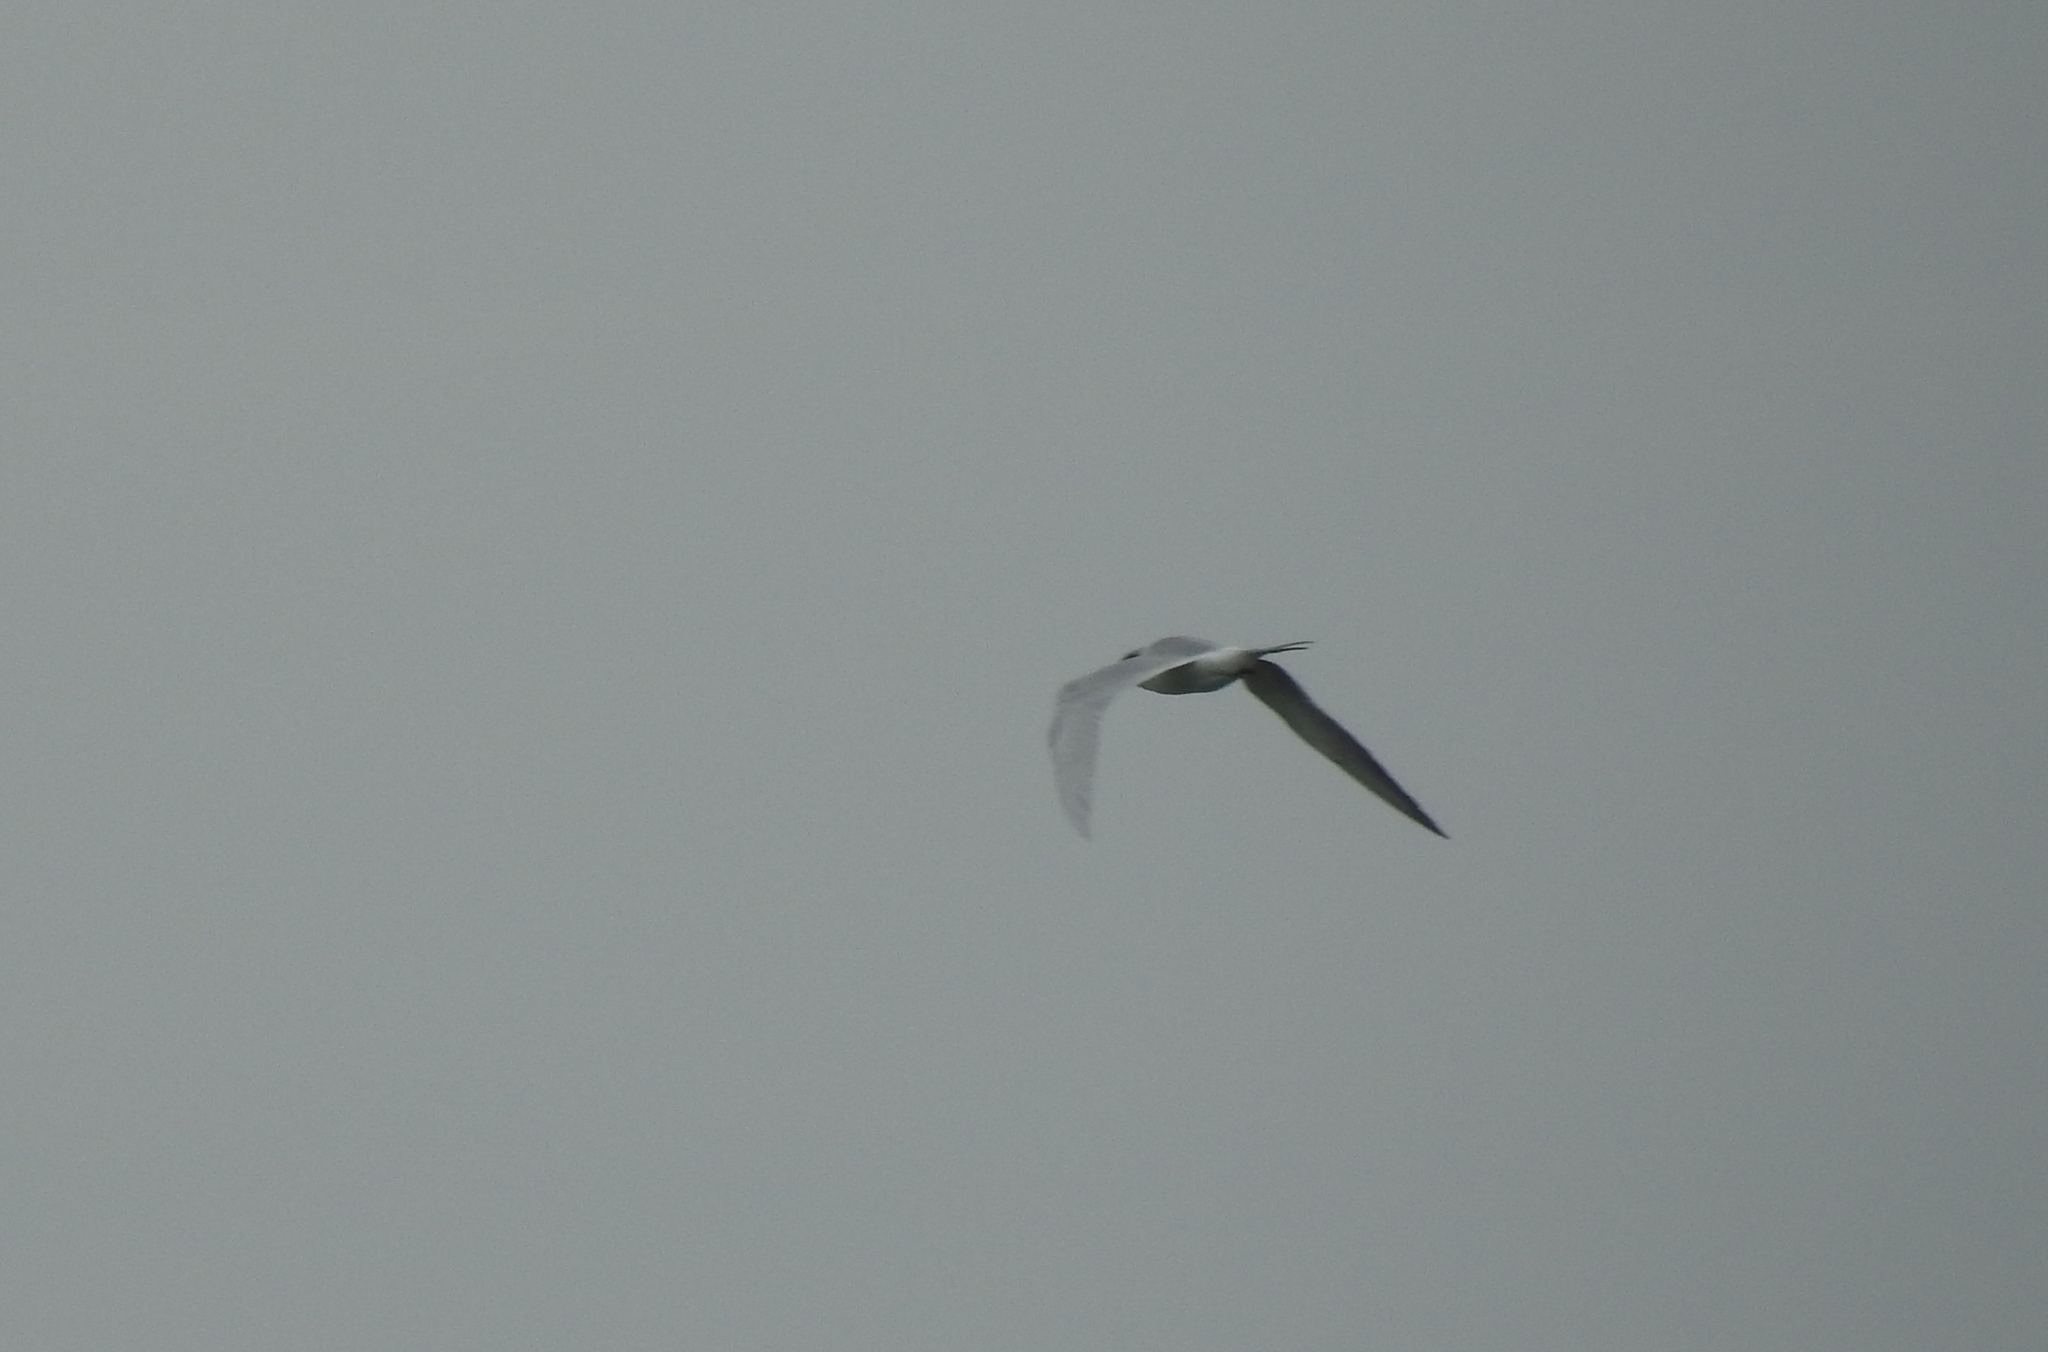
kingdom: Animalia
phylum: Chordata
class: Aves
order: Charadriiformes
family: Laridae
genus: Sterna
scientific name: Sterna forsteri
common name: Forster's tern
